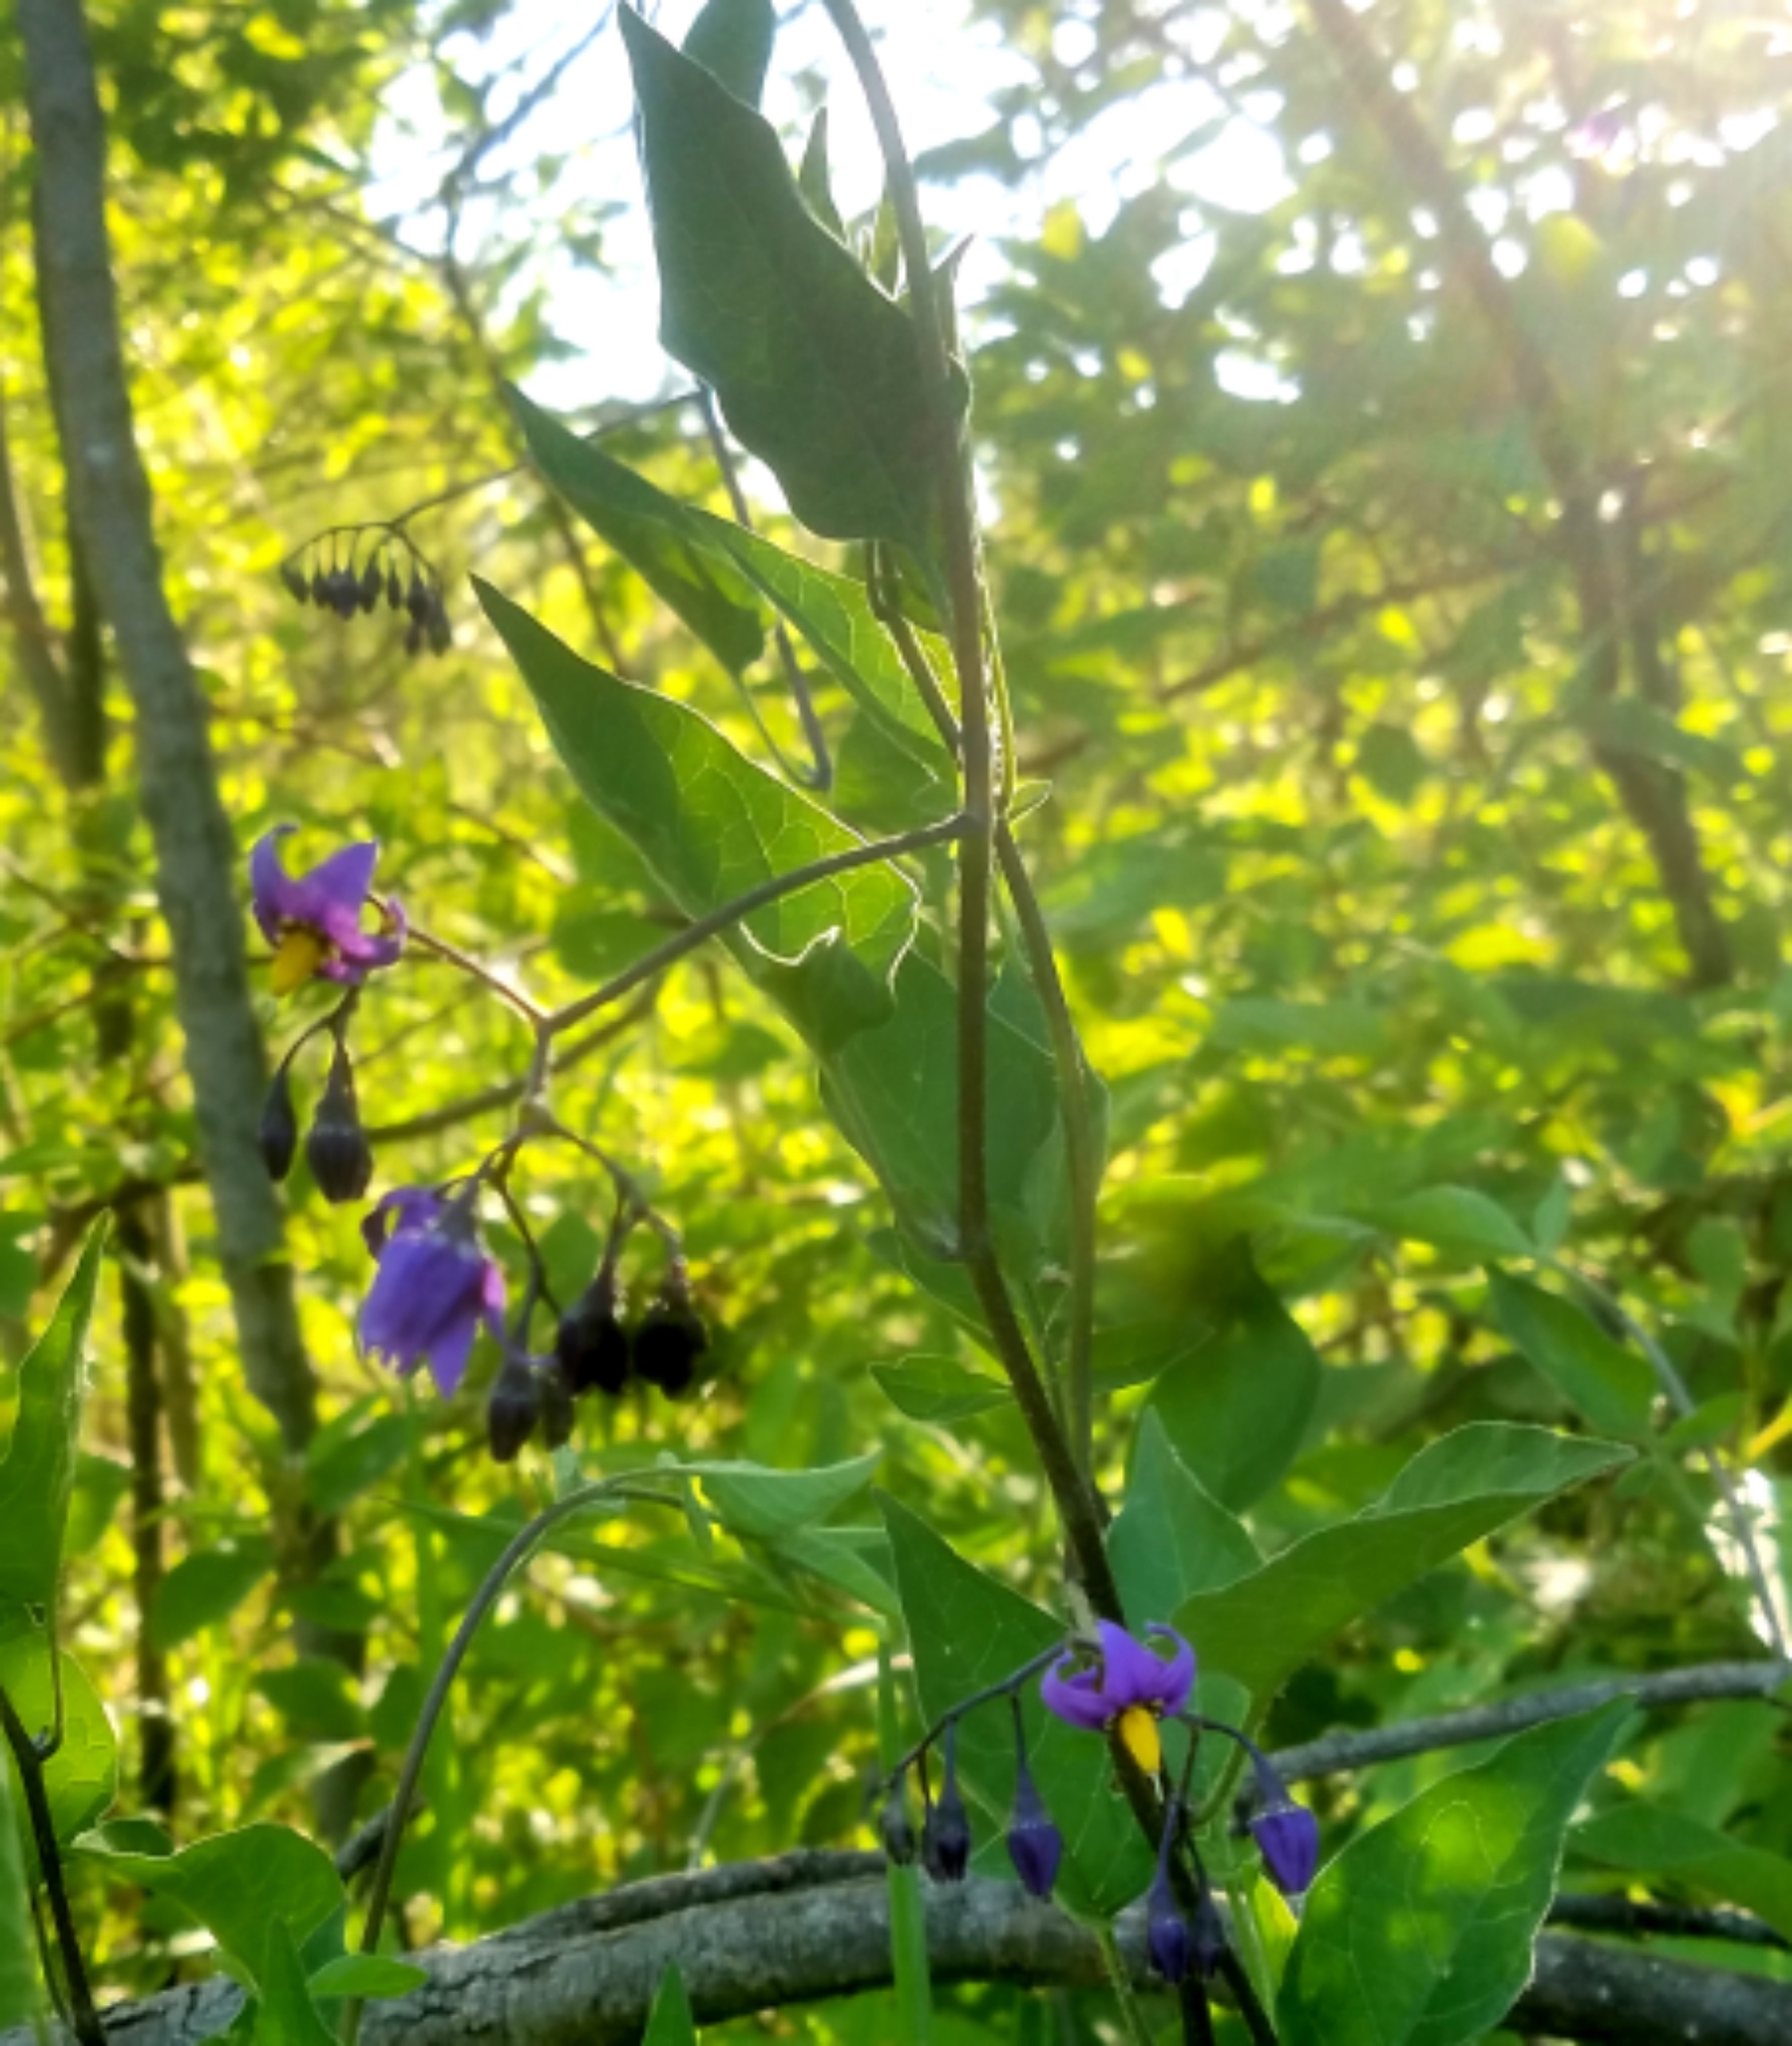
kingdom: Plantae
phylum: Tracheophyta
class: Magnoliopsida
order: Solanales
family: Solanaceae
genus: Solanum
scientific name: Solanum dulcamara
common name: Climbing nightshade
